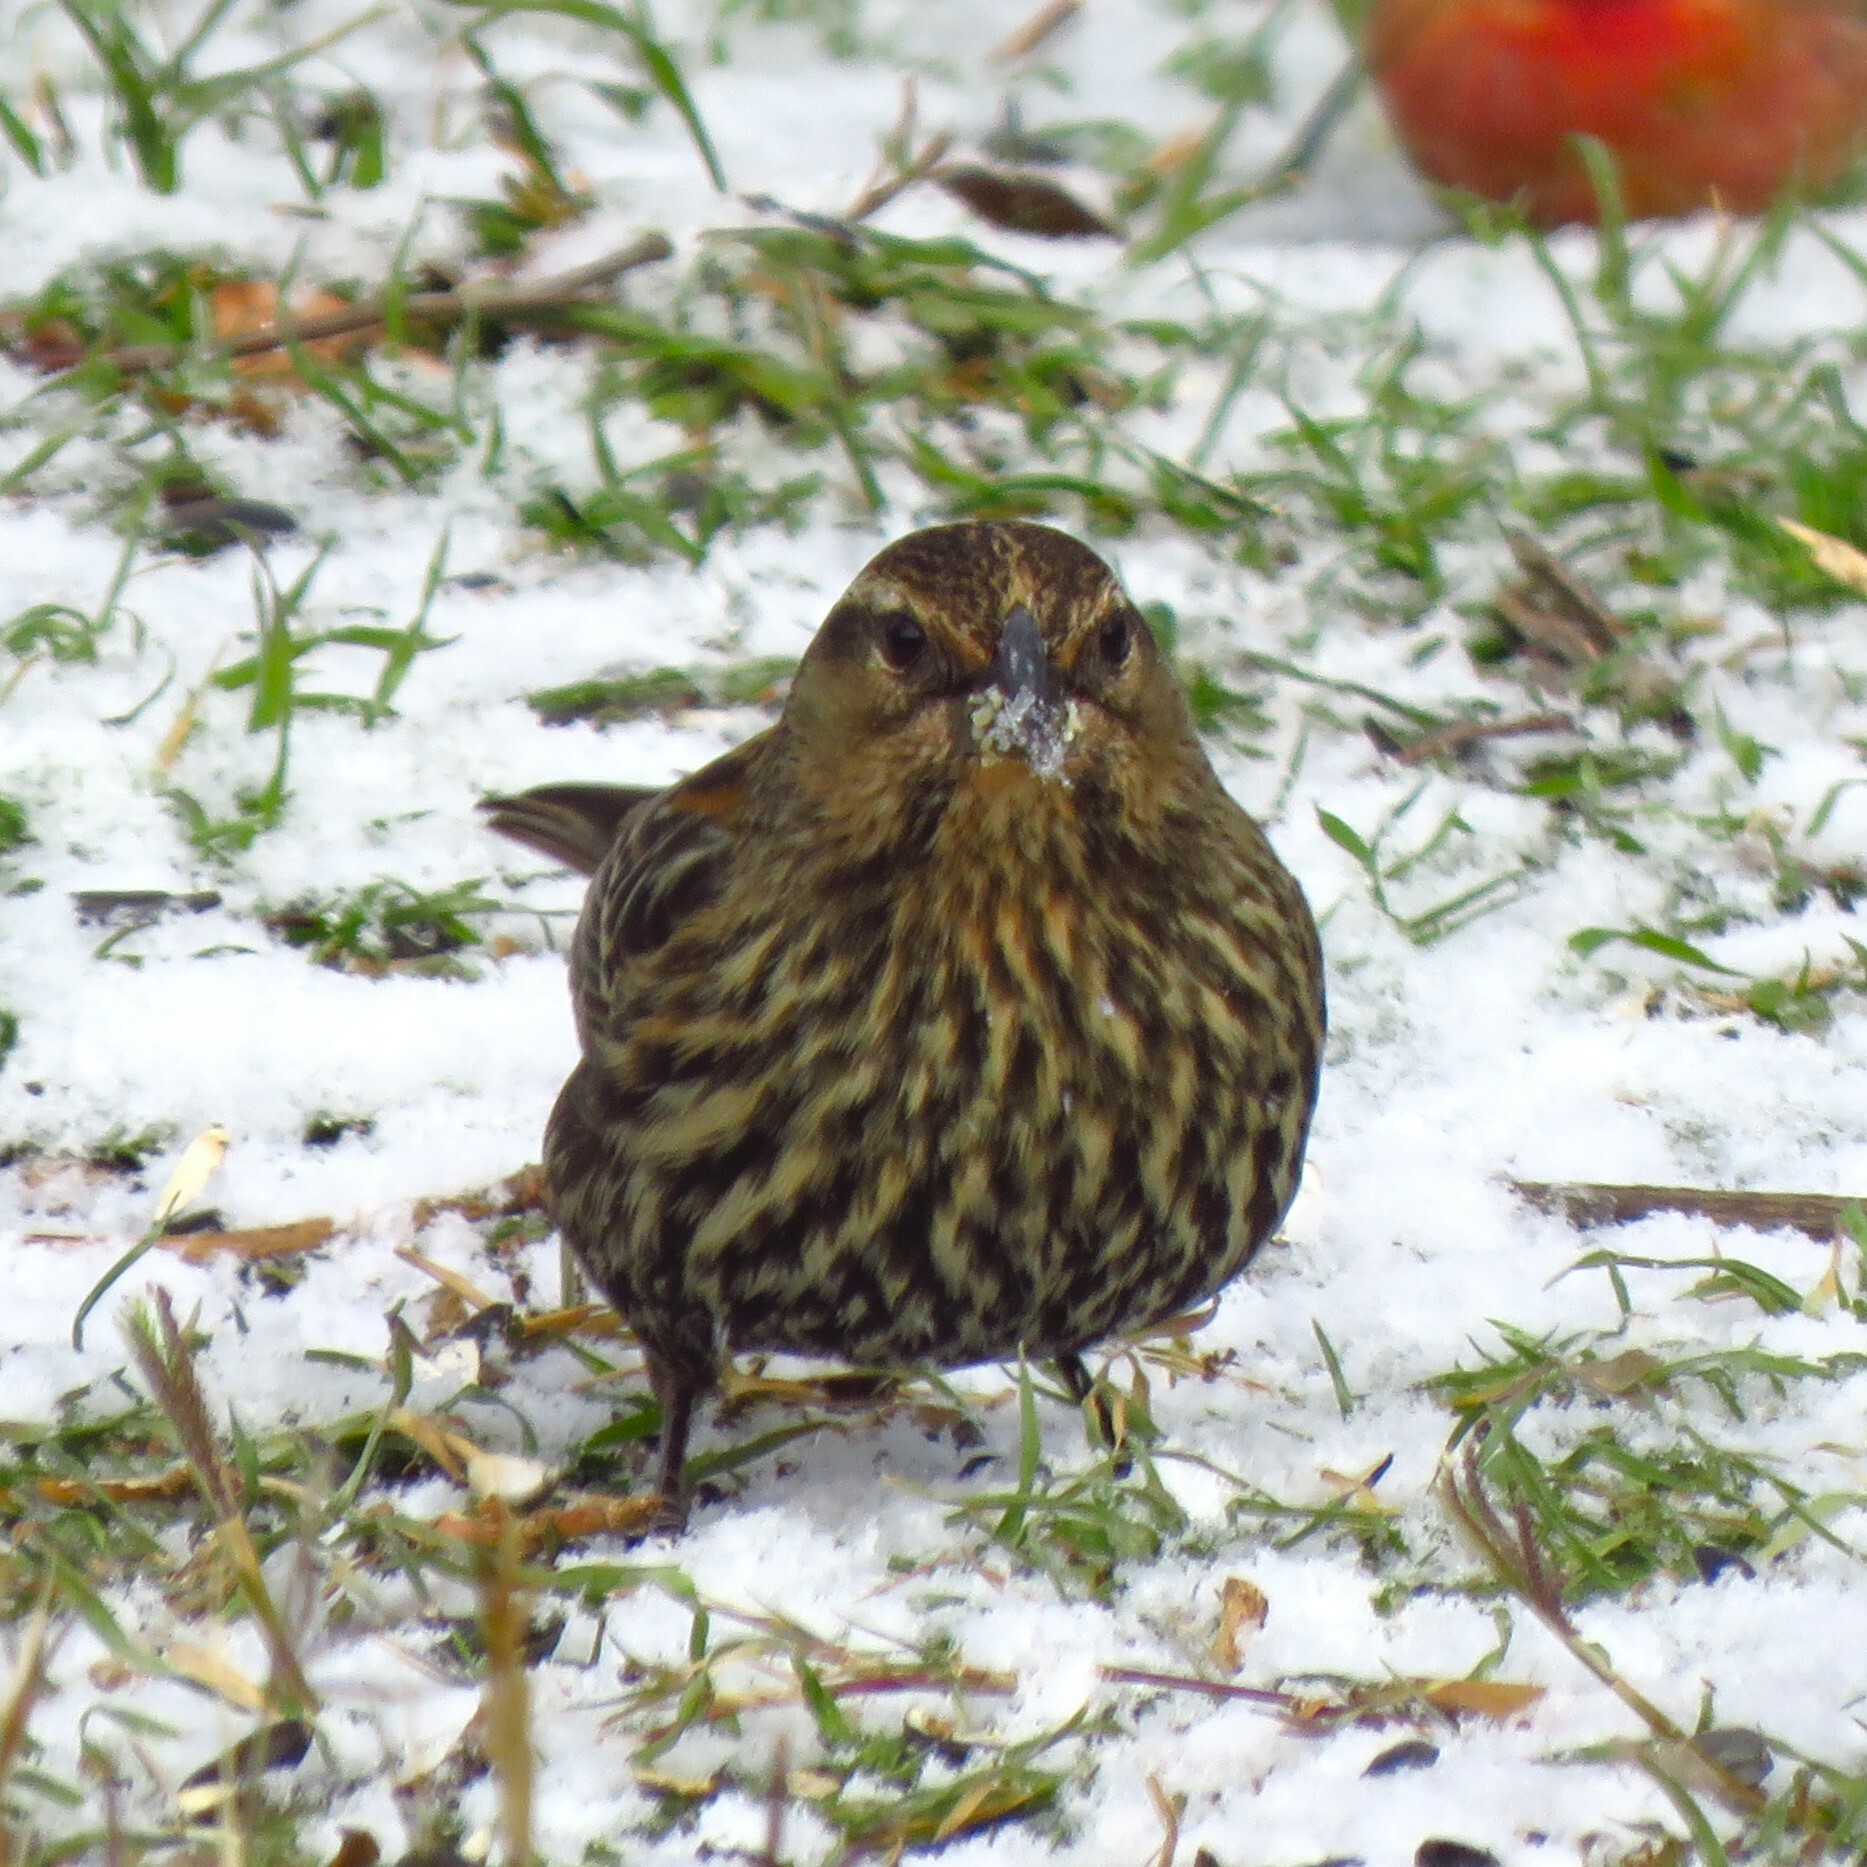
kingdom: Animalia
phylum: Chordata
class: Aves
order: Passeriformes
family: Icteridae
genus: Agelaius
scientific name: Agelaius phoeniceus
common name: Red-winged blackbird
